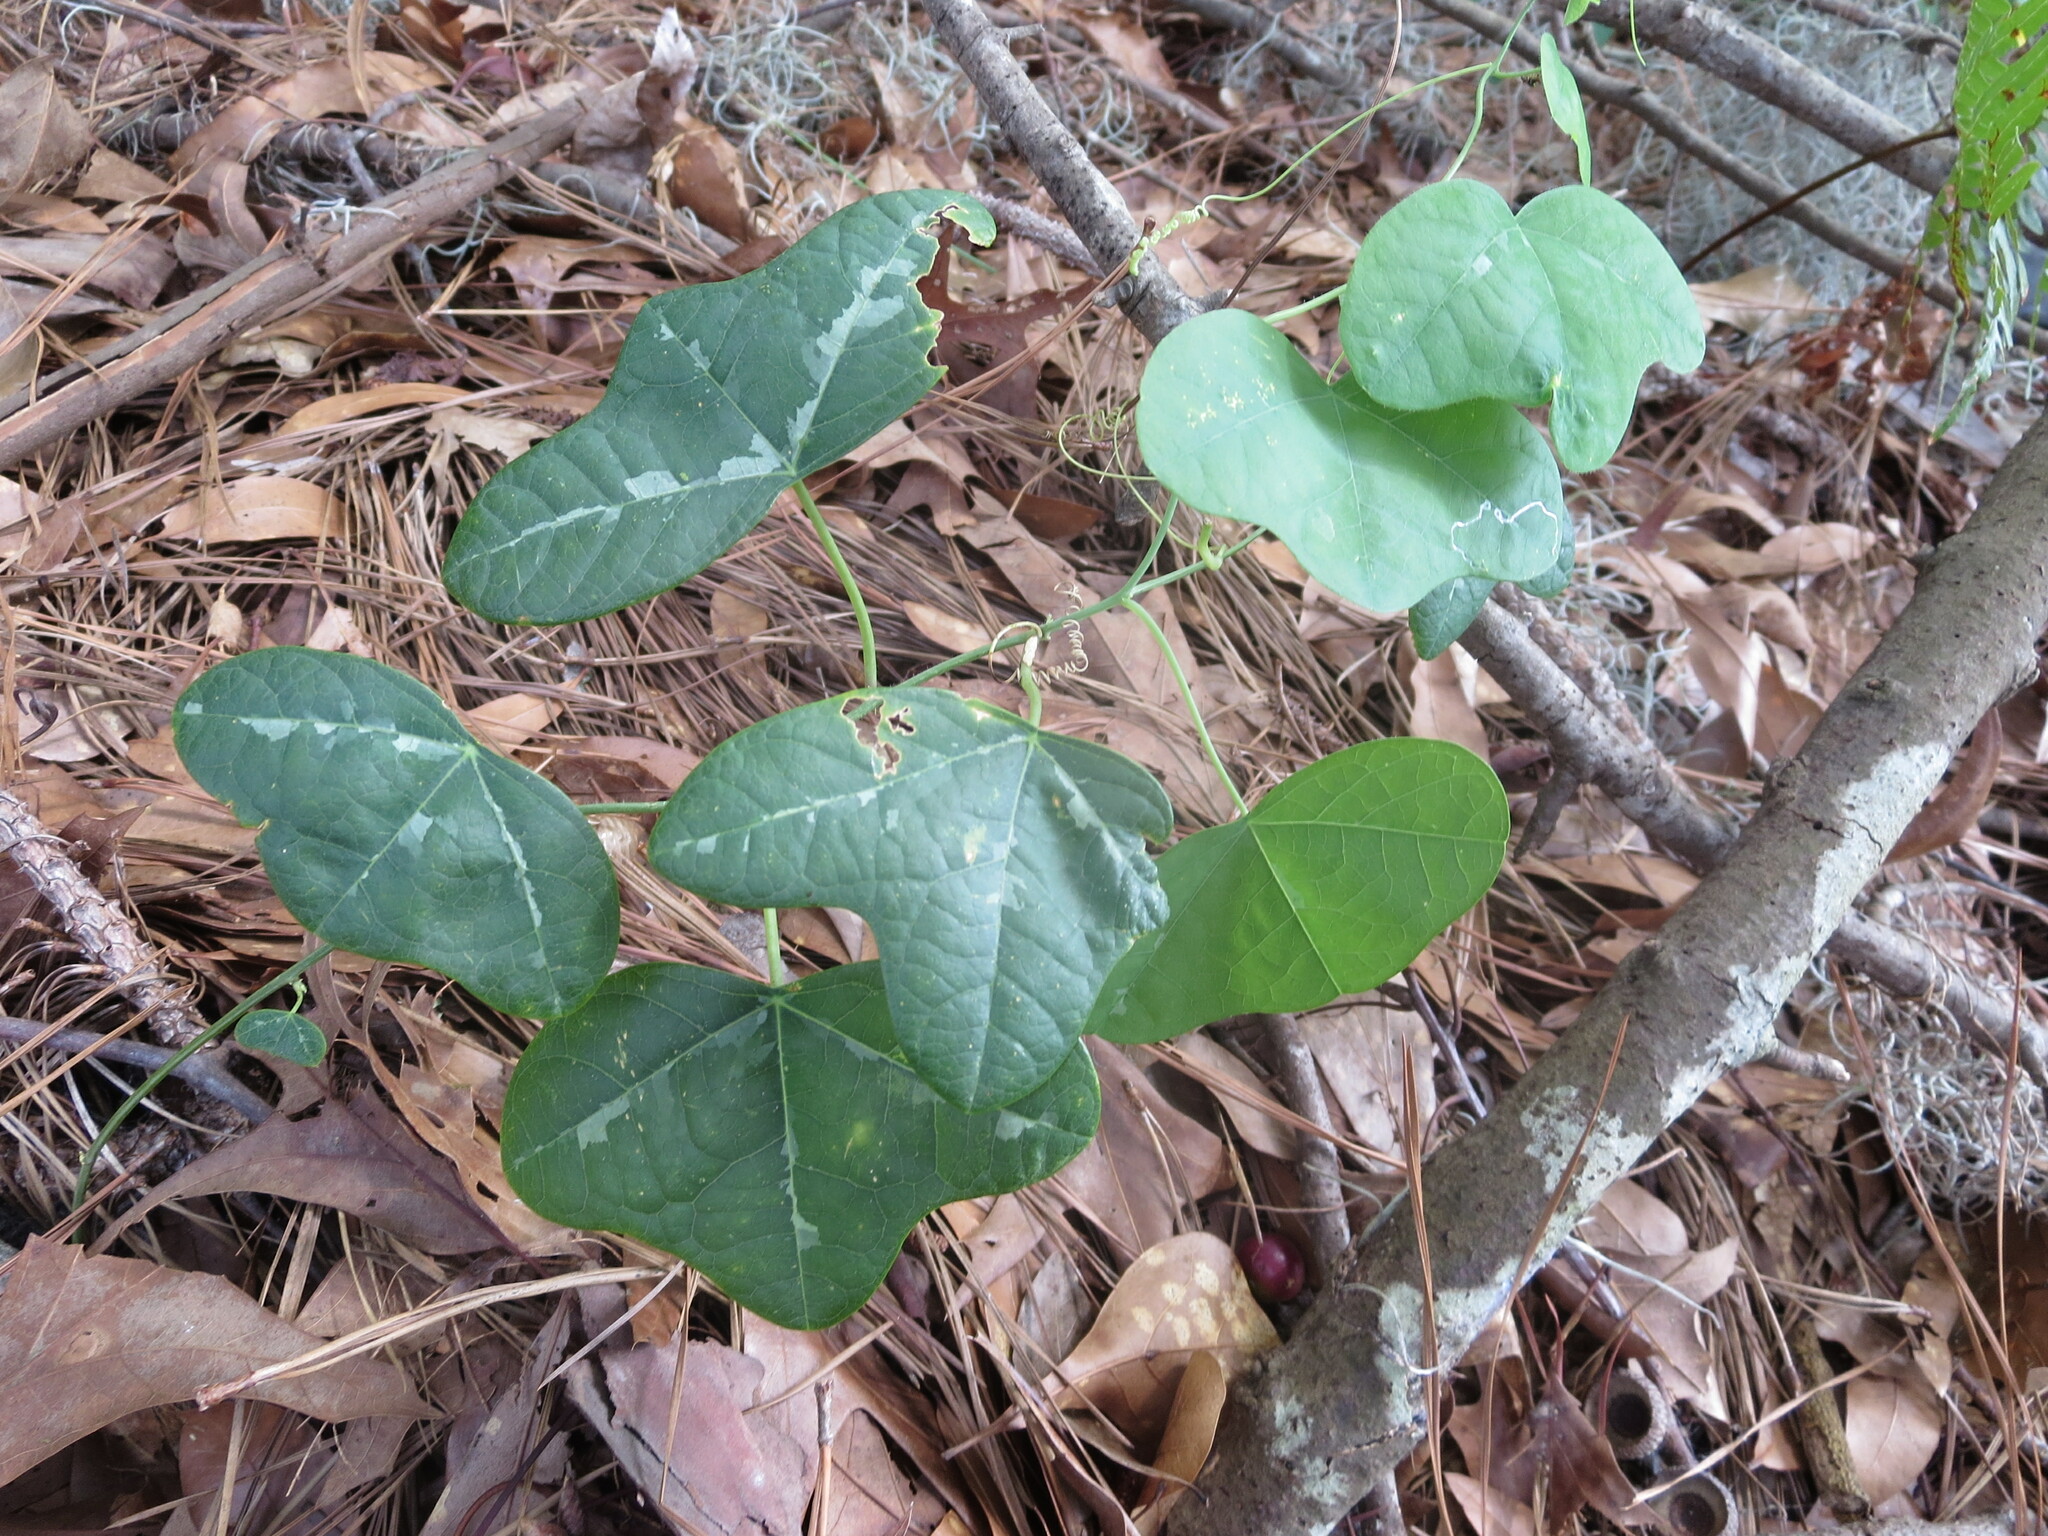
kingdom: Plantae
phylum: Tracheophyta
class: Magnoliopsida
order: Malpighiales
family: Passifloraceae
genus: Passiflora
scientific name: Passiflora lutea
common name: Yellow passionflower
